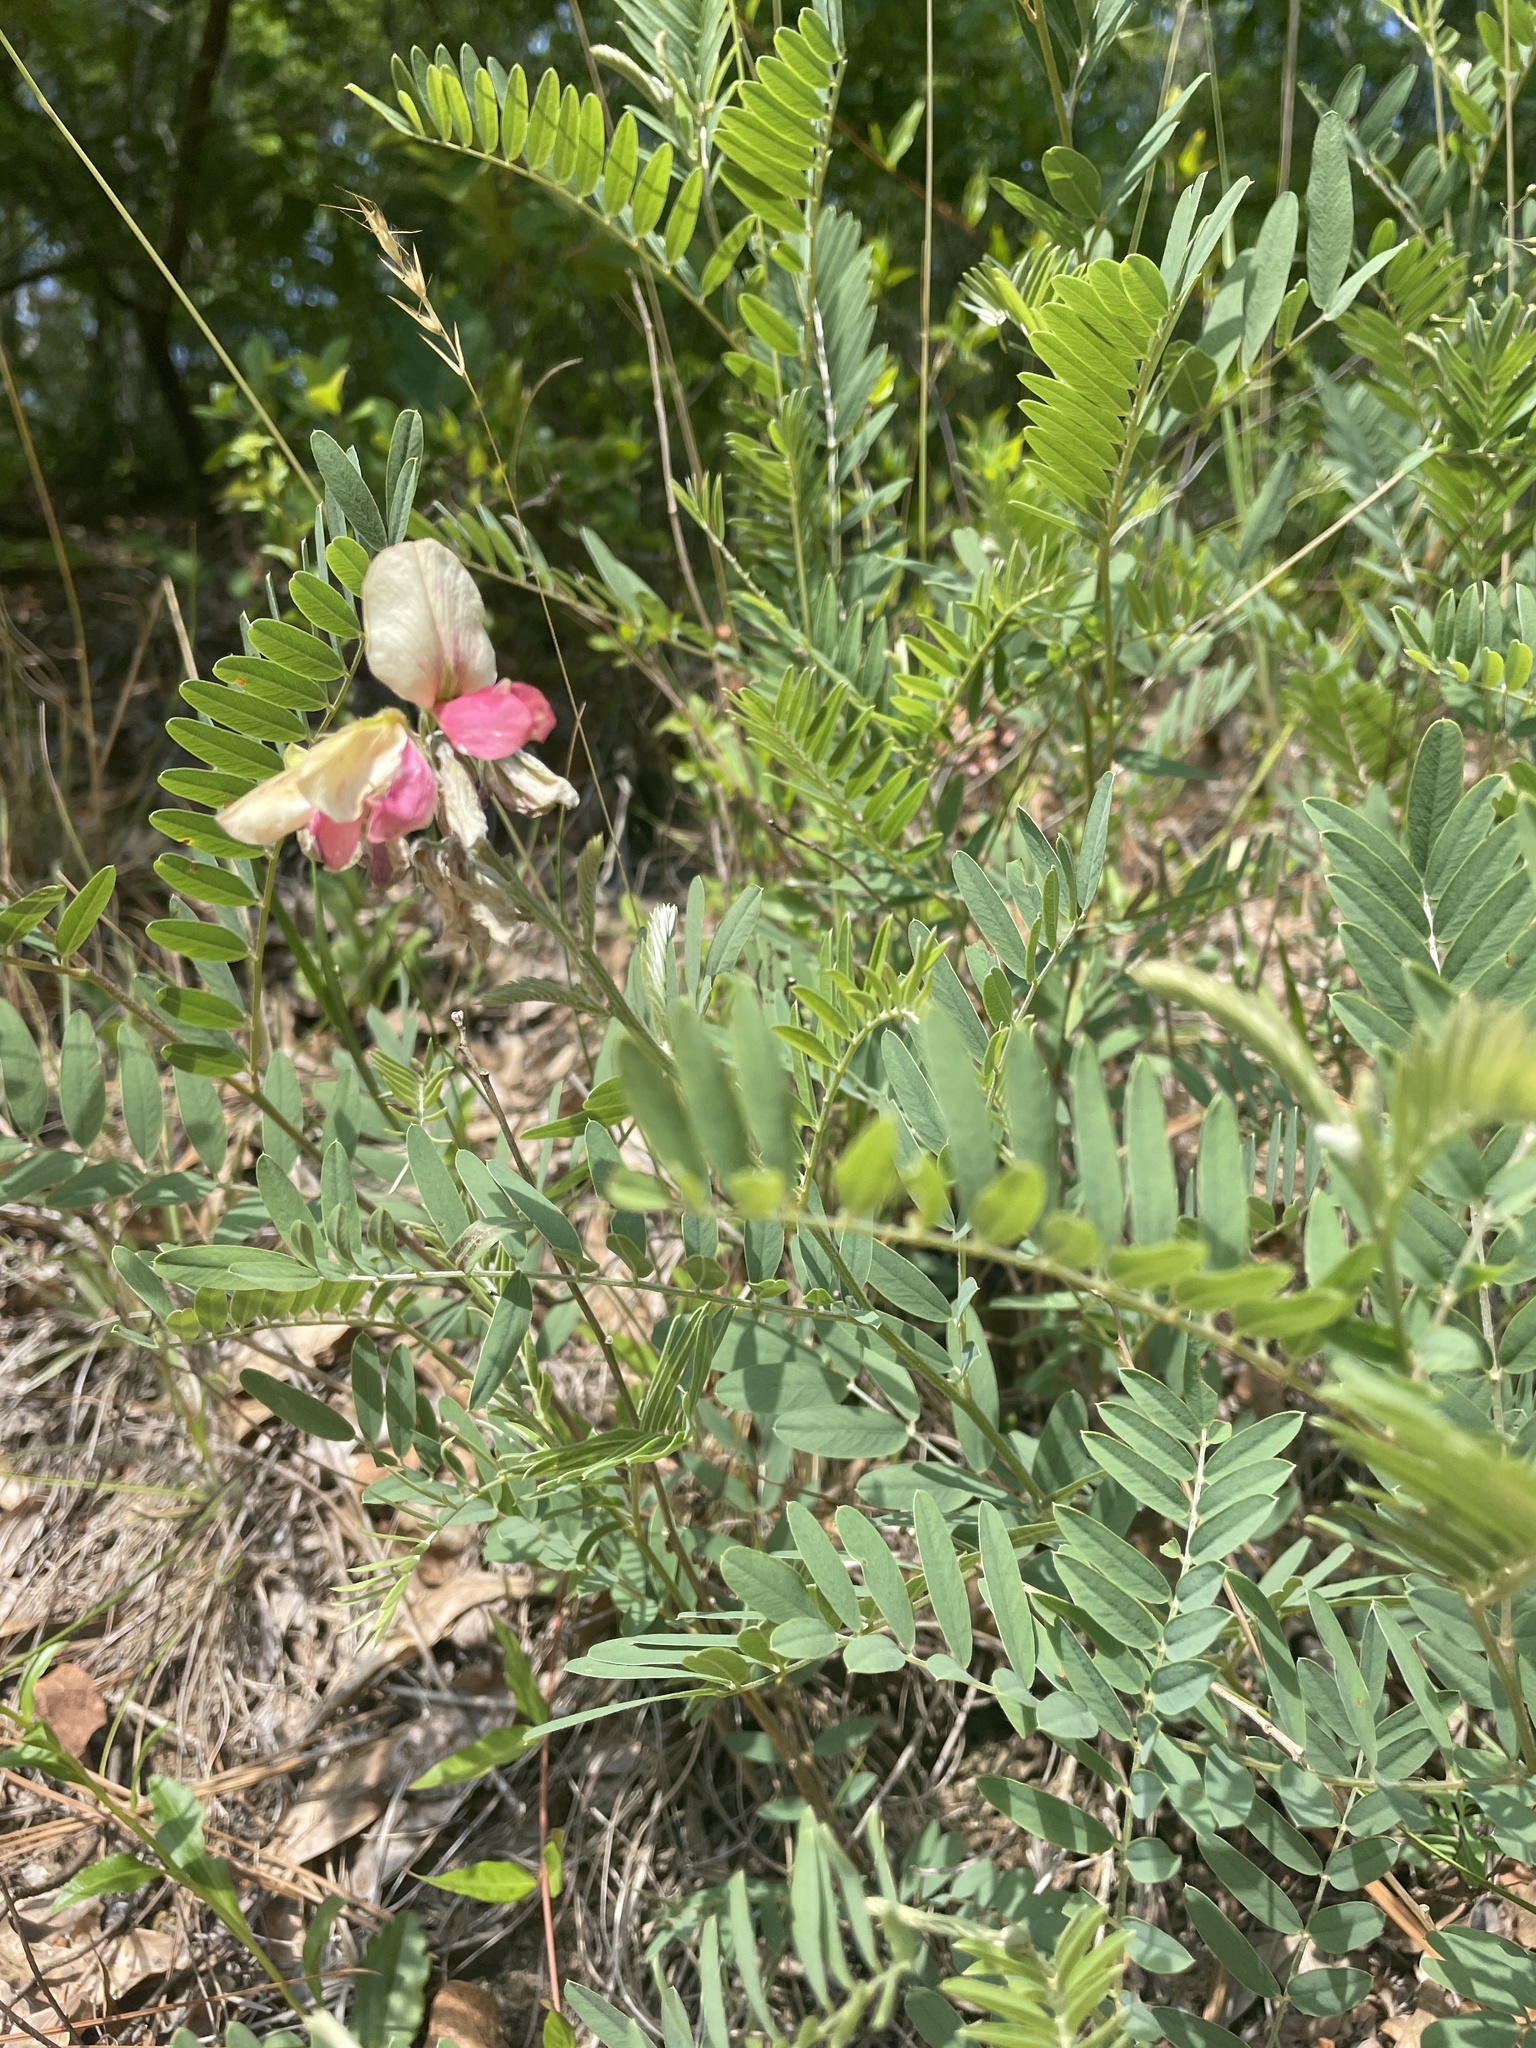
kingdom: Plantae
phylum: Tracheophyta
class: Magnoliopsida
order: Fabales
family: Fabaceae
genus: Tephrosia
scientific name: Tephrosia virginiana
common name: Rabbit-pea
